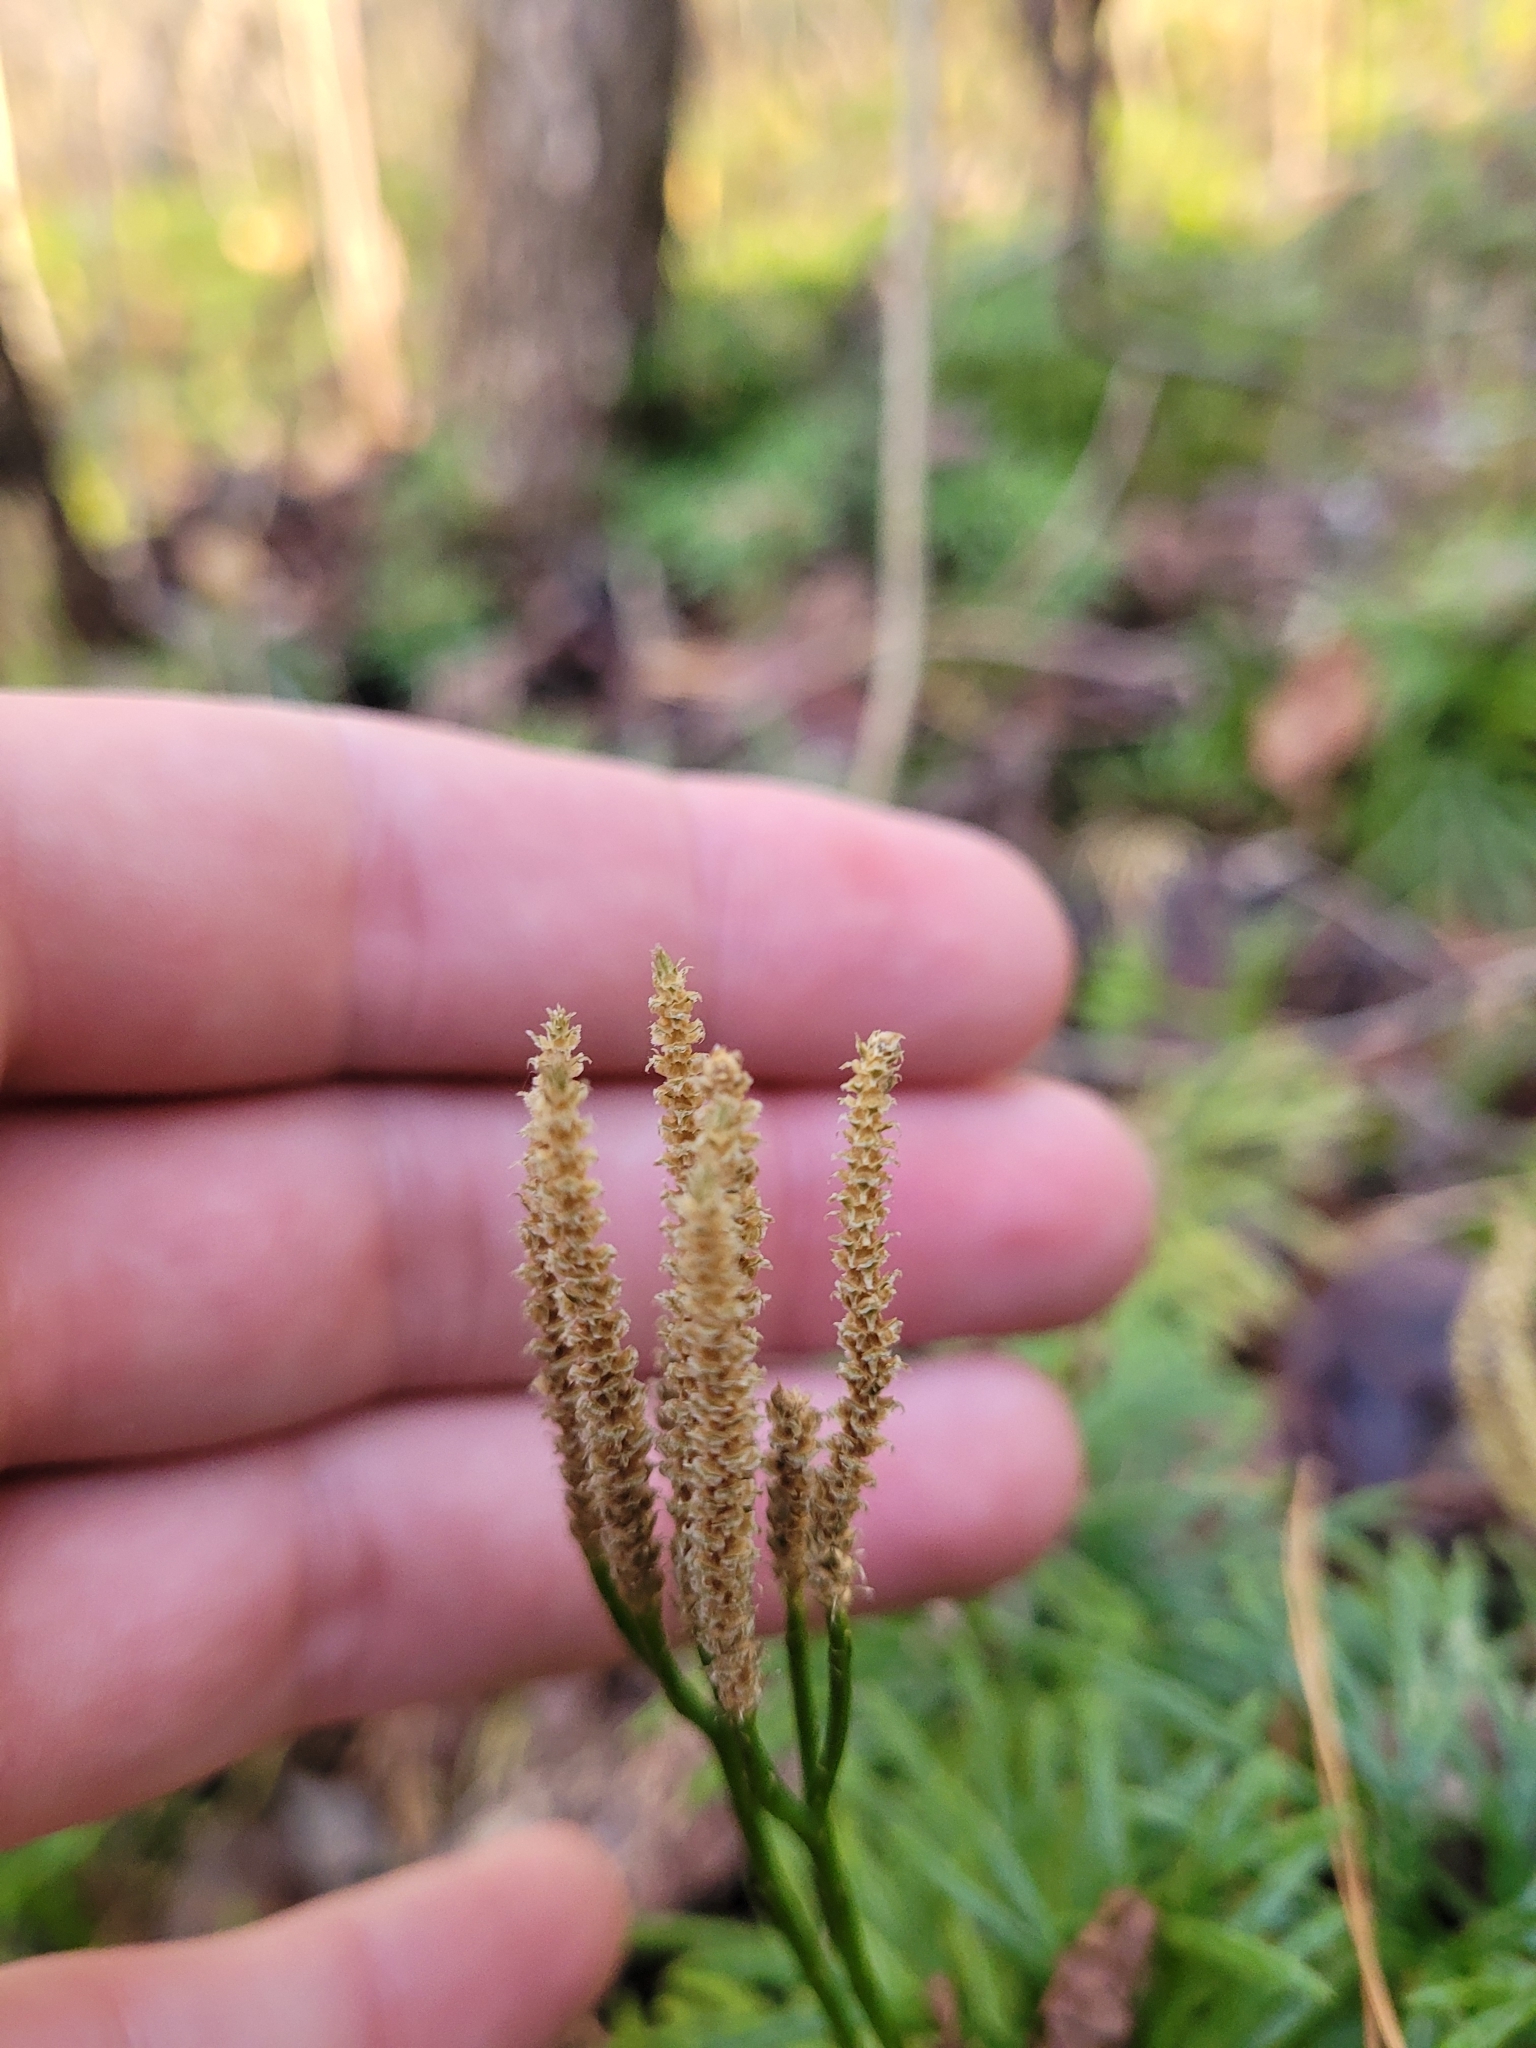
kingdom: Plantae
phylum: Tracheophyta
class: Lycopodiopsida
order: Lycopodiales
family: Lycopodiaceae
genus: Diphasiastrum
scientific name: Diphasiastrum digitatum
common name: Southern running-pine
